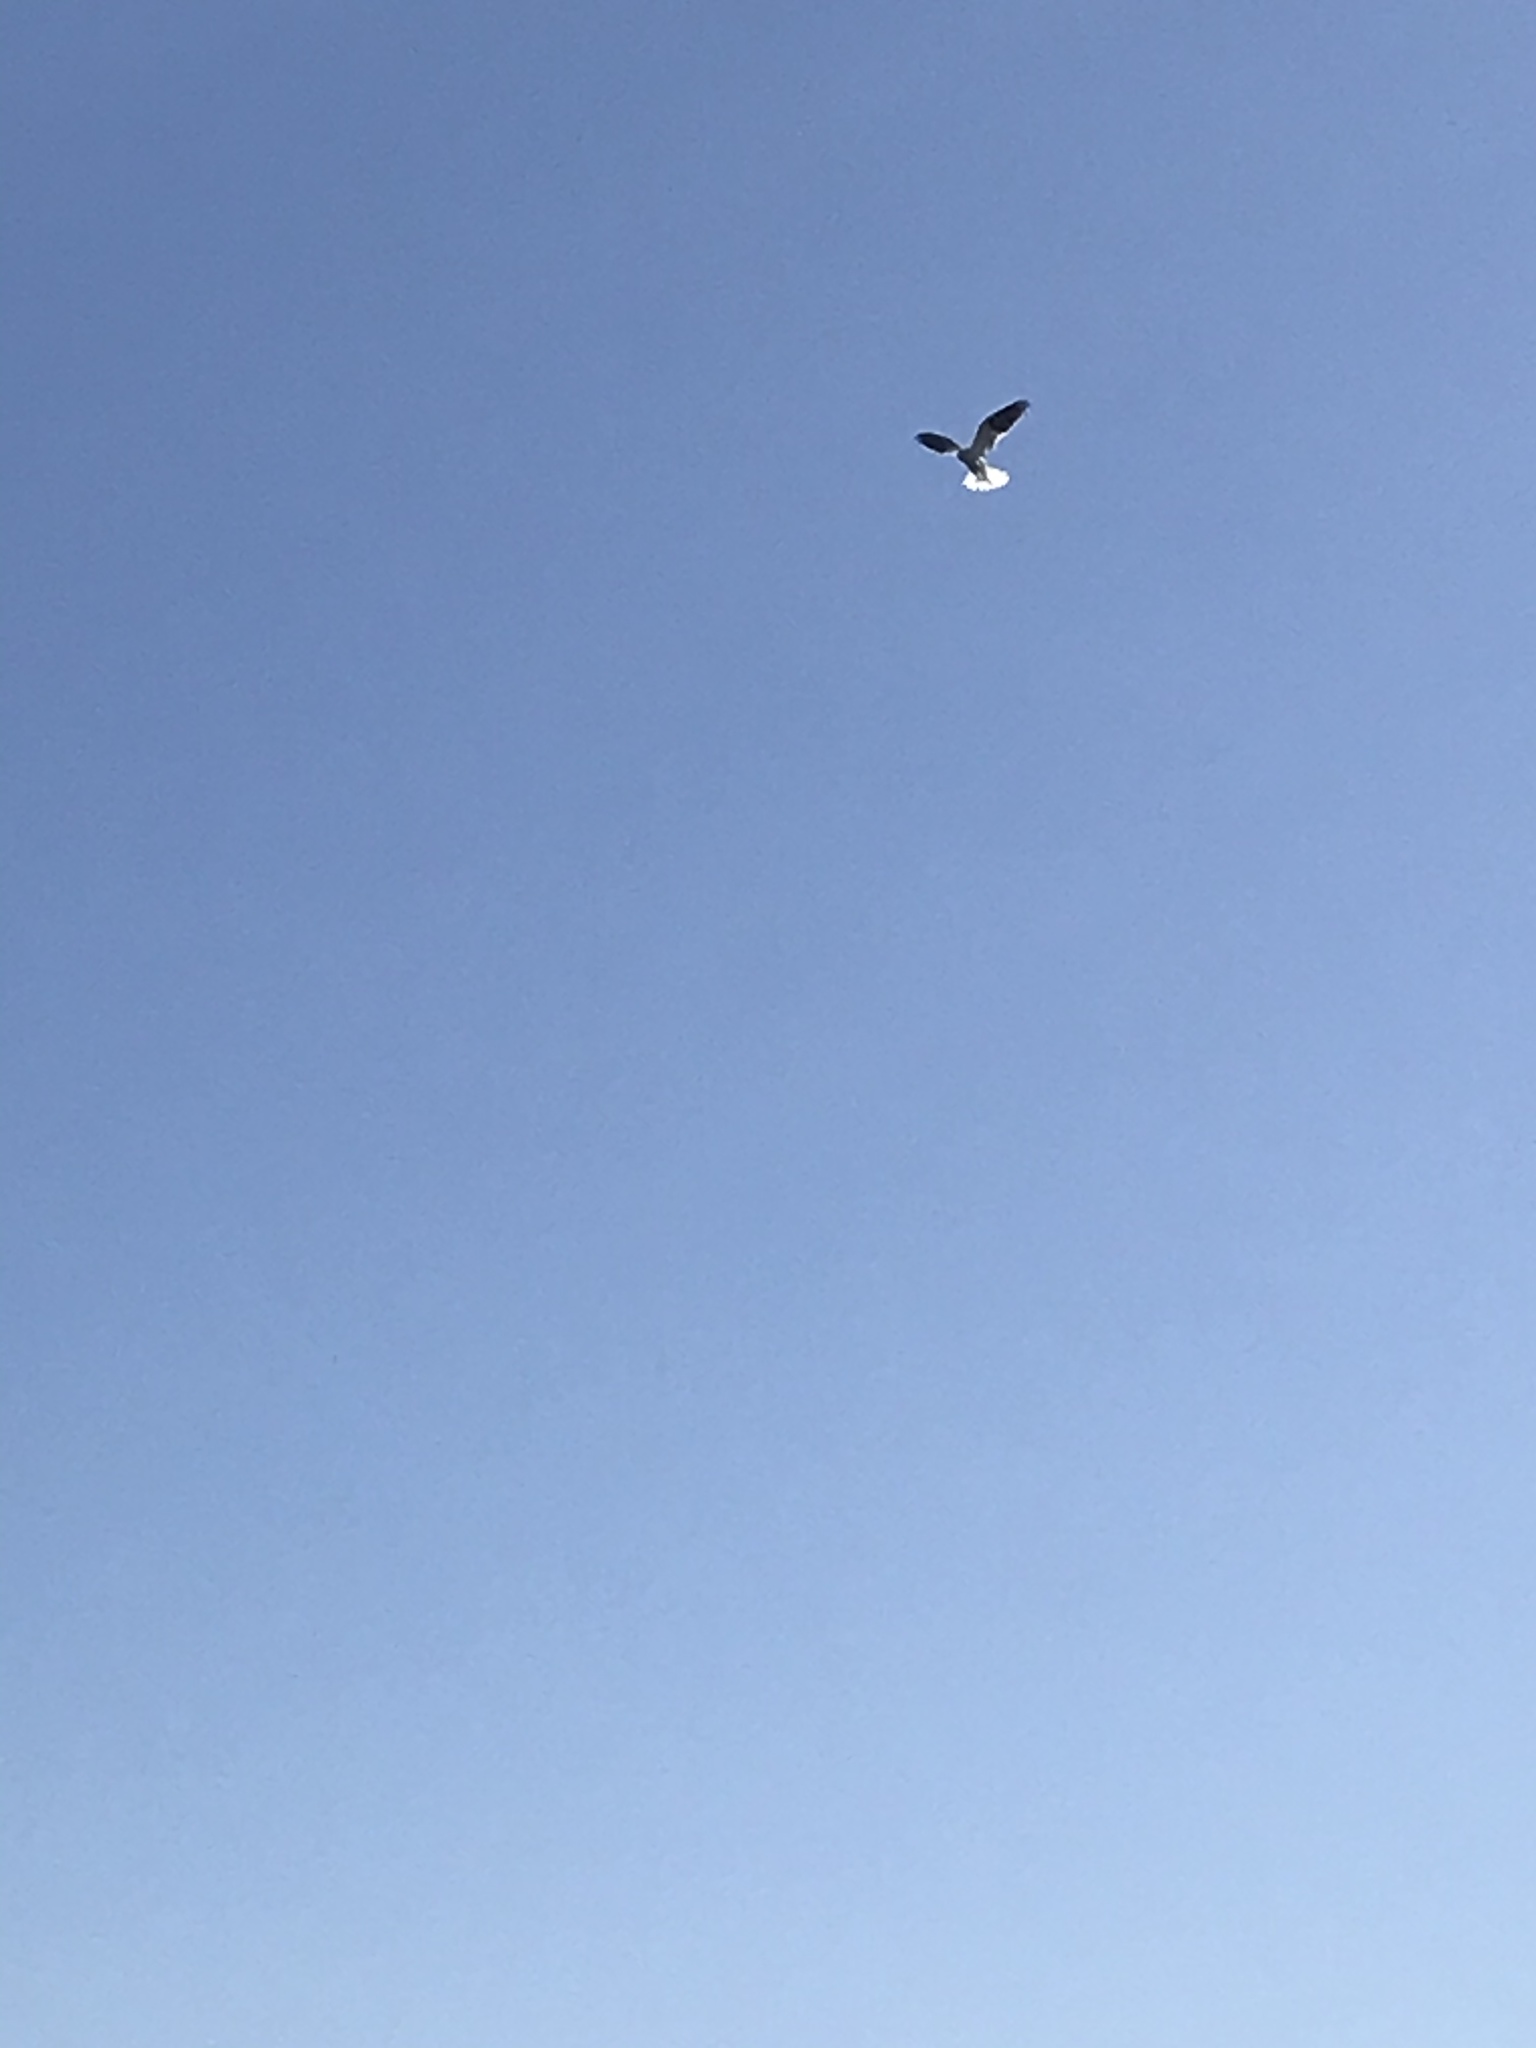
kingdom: Animalia
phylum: Chordata
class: Aves
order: Accipitriformes
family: Accipitridae
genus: Elanus
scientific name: Elanus leucurus
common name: White-tailed kite
